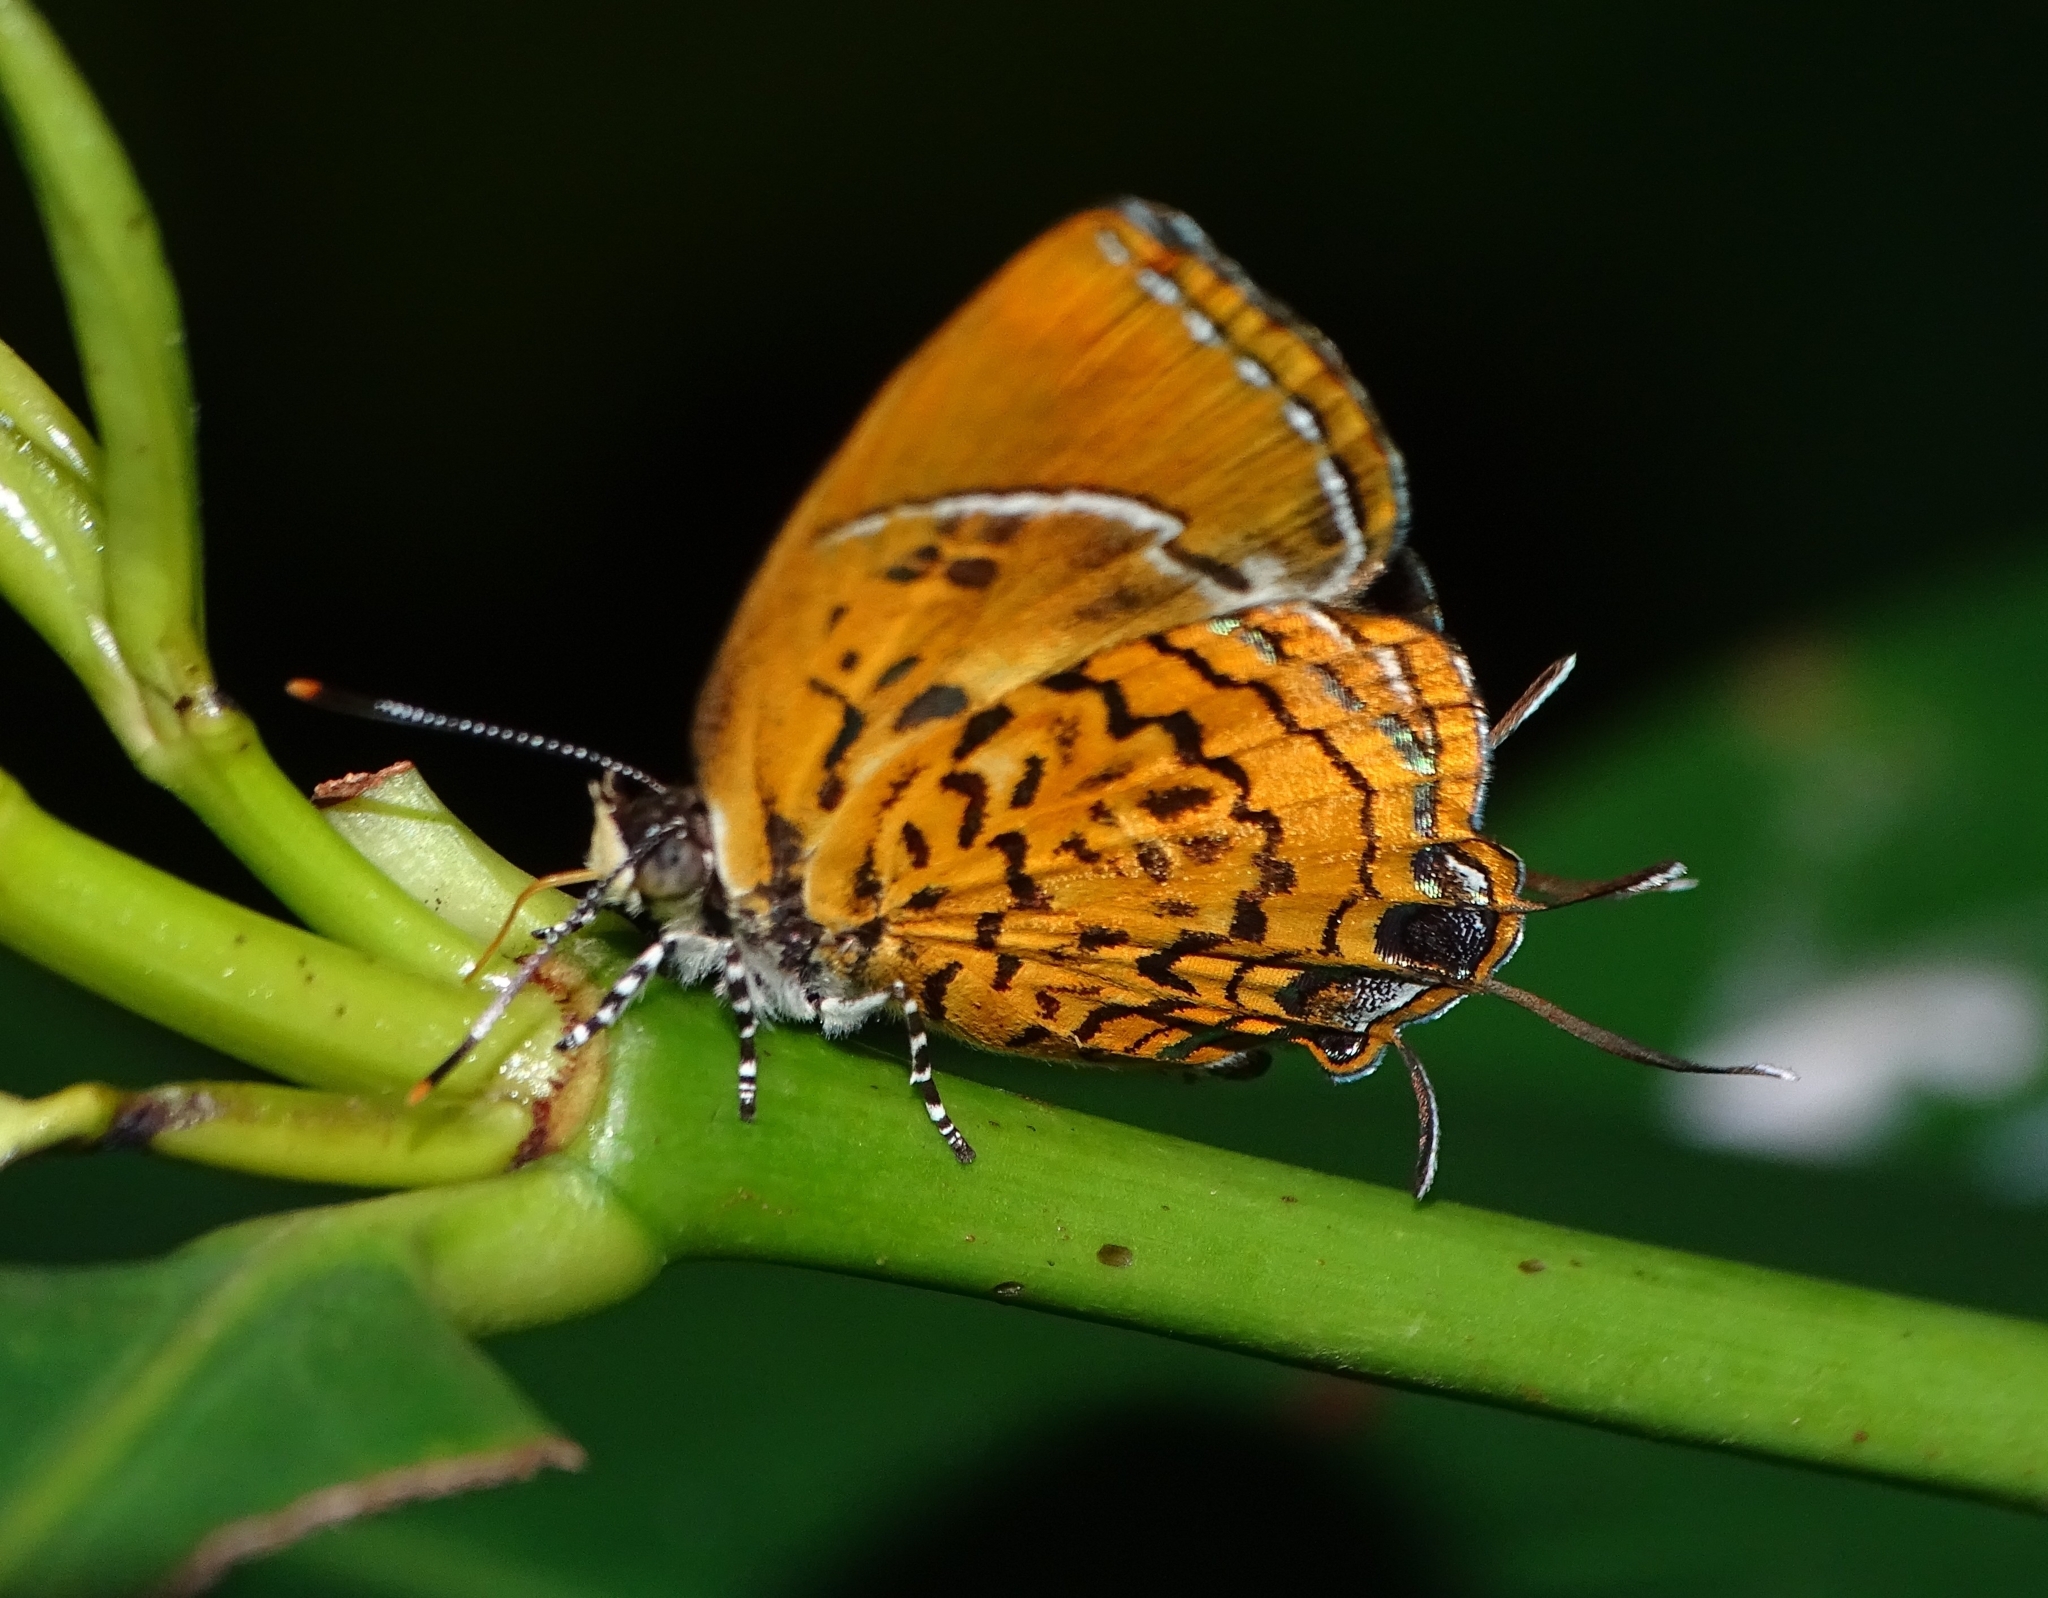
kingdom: Animalia
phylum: Arthropoda
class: Insecta
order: Lepidoptera
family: Lycaenidae
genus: Rathinda
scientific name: Rathinda amor
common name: Monkey puzzle
